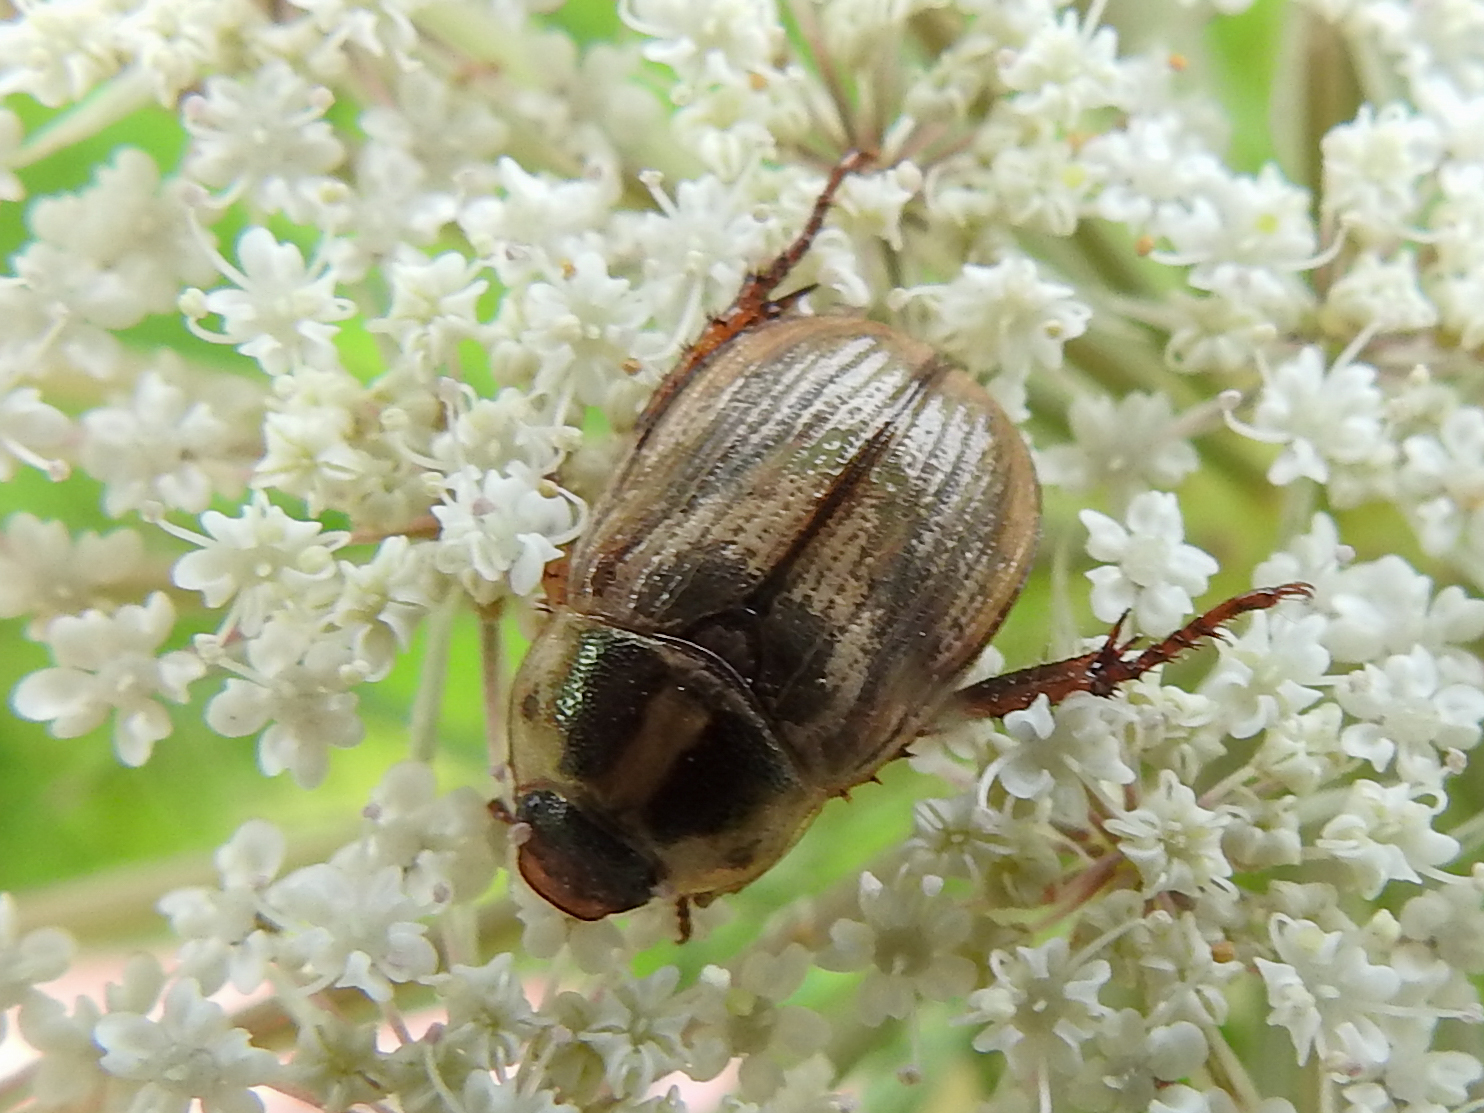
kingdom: Animalia
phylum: Arthropoda
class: Insecta
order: Coleoptera
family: Scarabaeidae
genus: Exomala
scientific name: Exomala orientalis
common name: Oriental beetle
